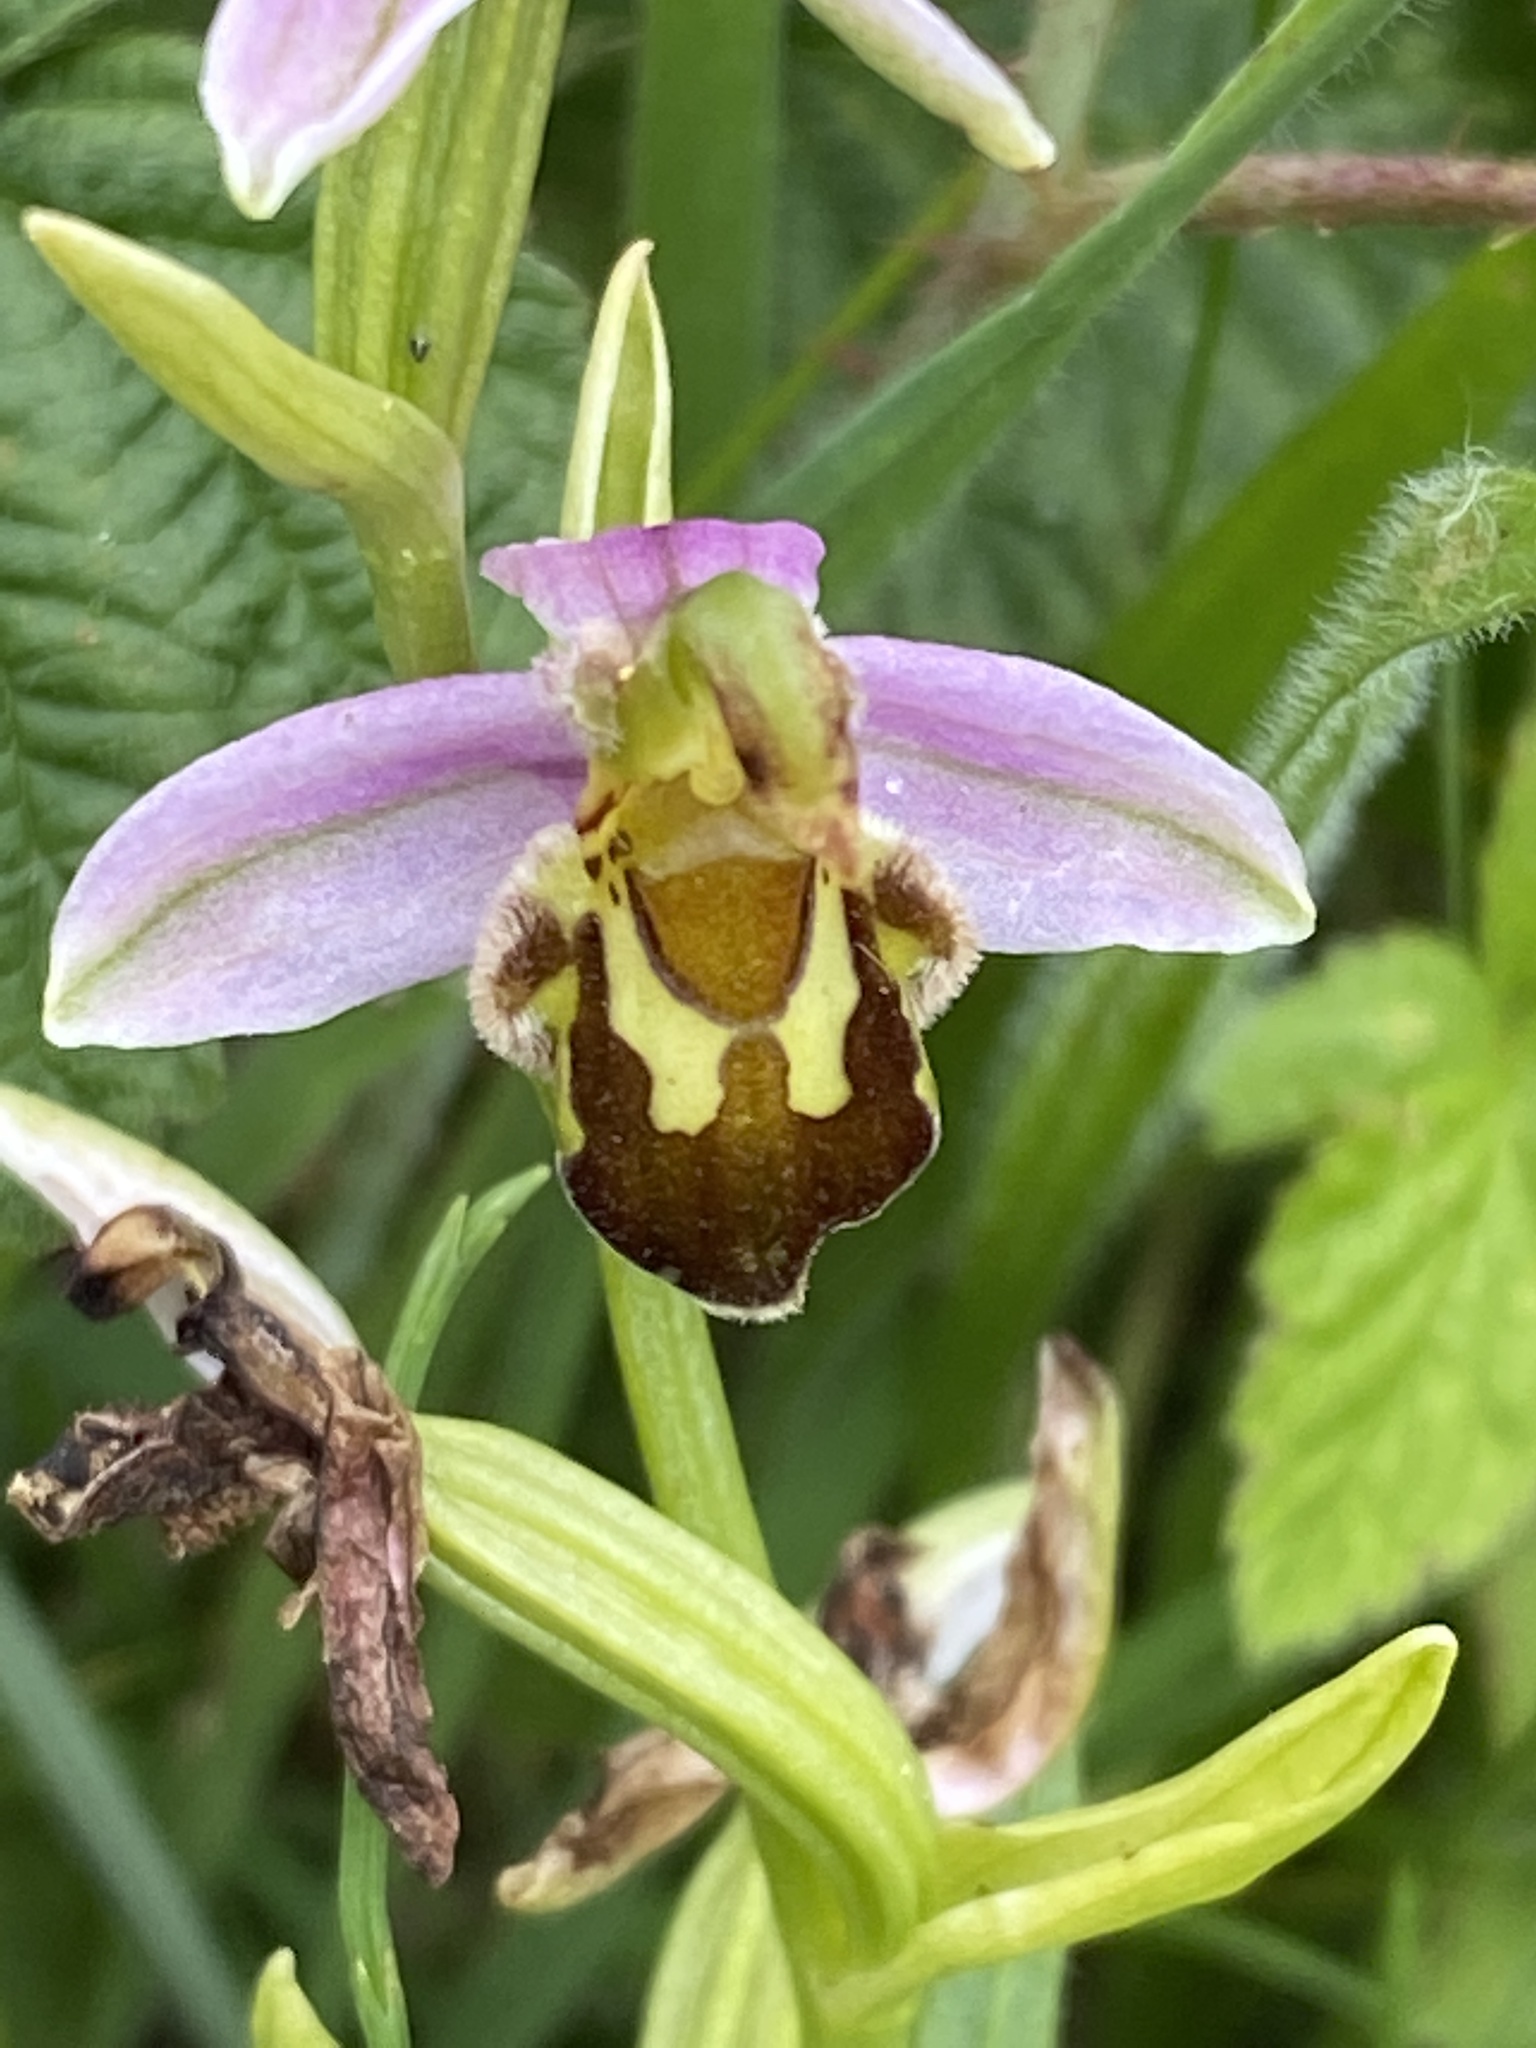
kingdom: Plantae
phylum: Tracheophyta
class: Liliopsida
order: Asparagales
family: Orchidaceae
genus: Ophrys
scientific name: Ophrys apifera
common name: Bee orchid
